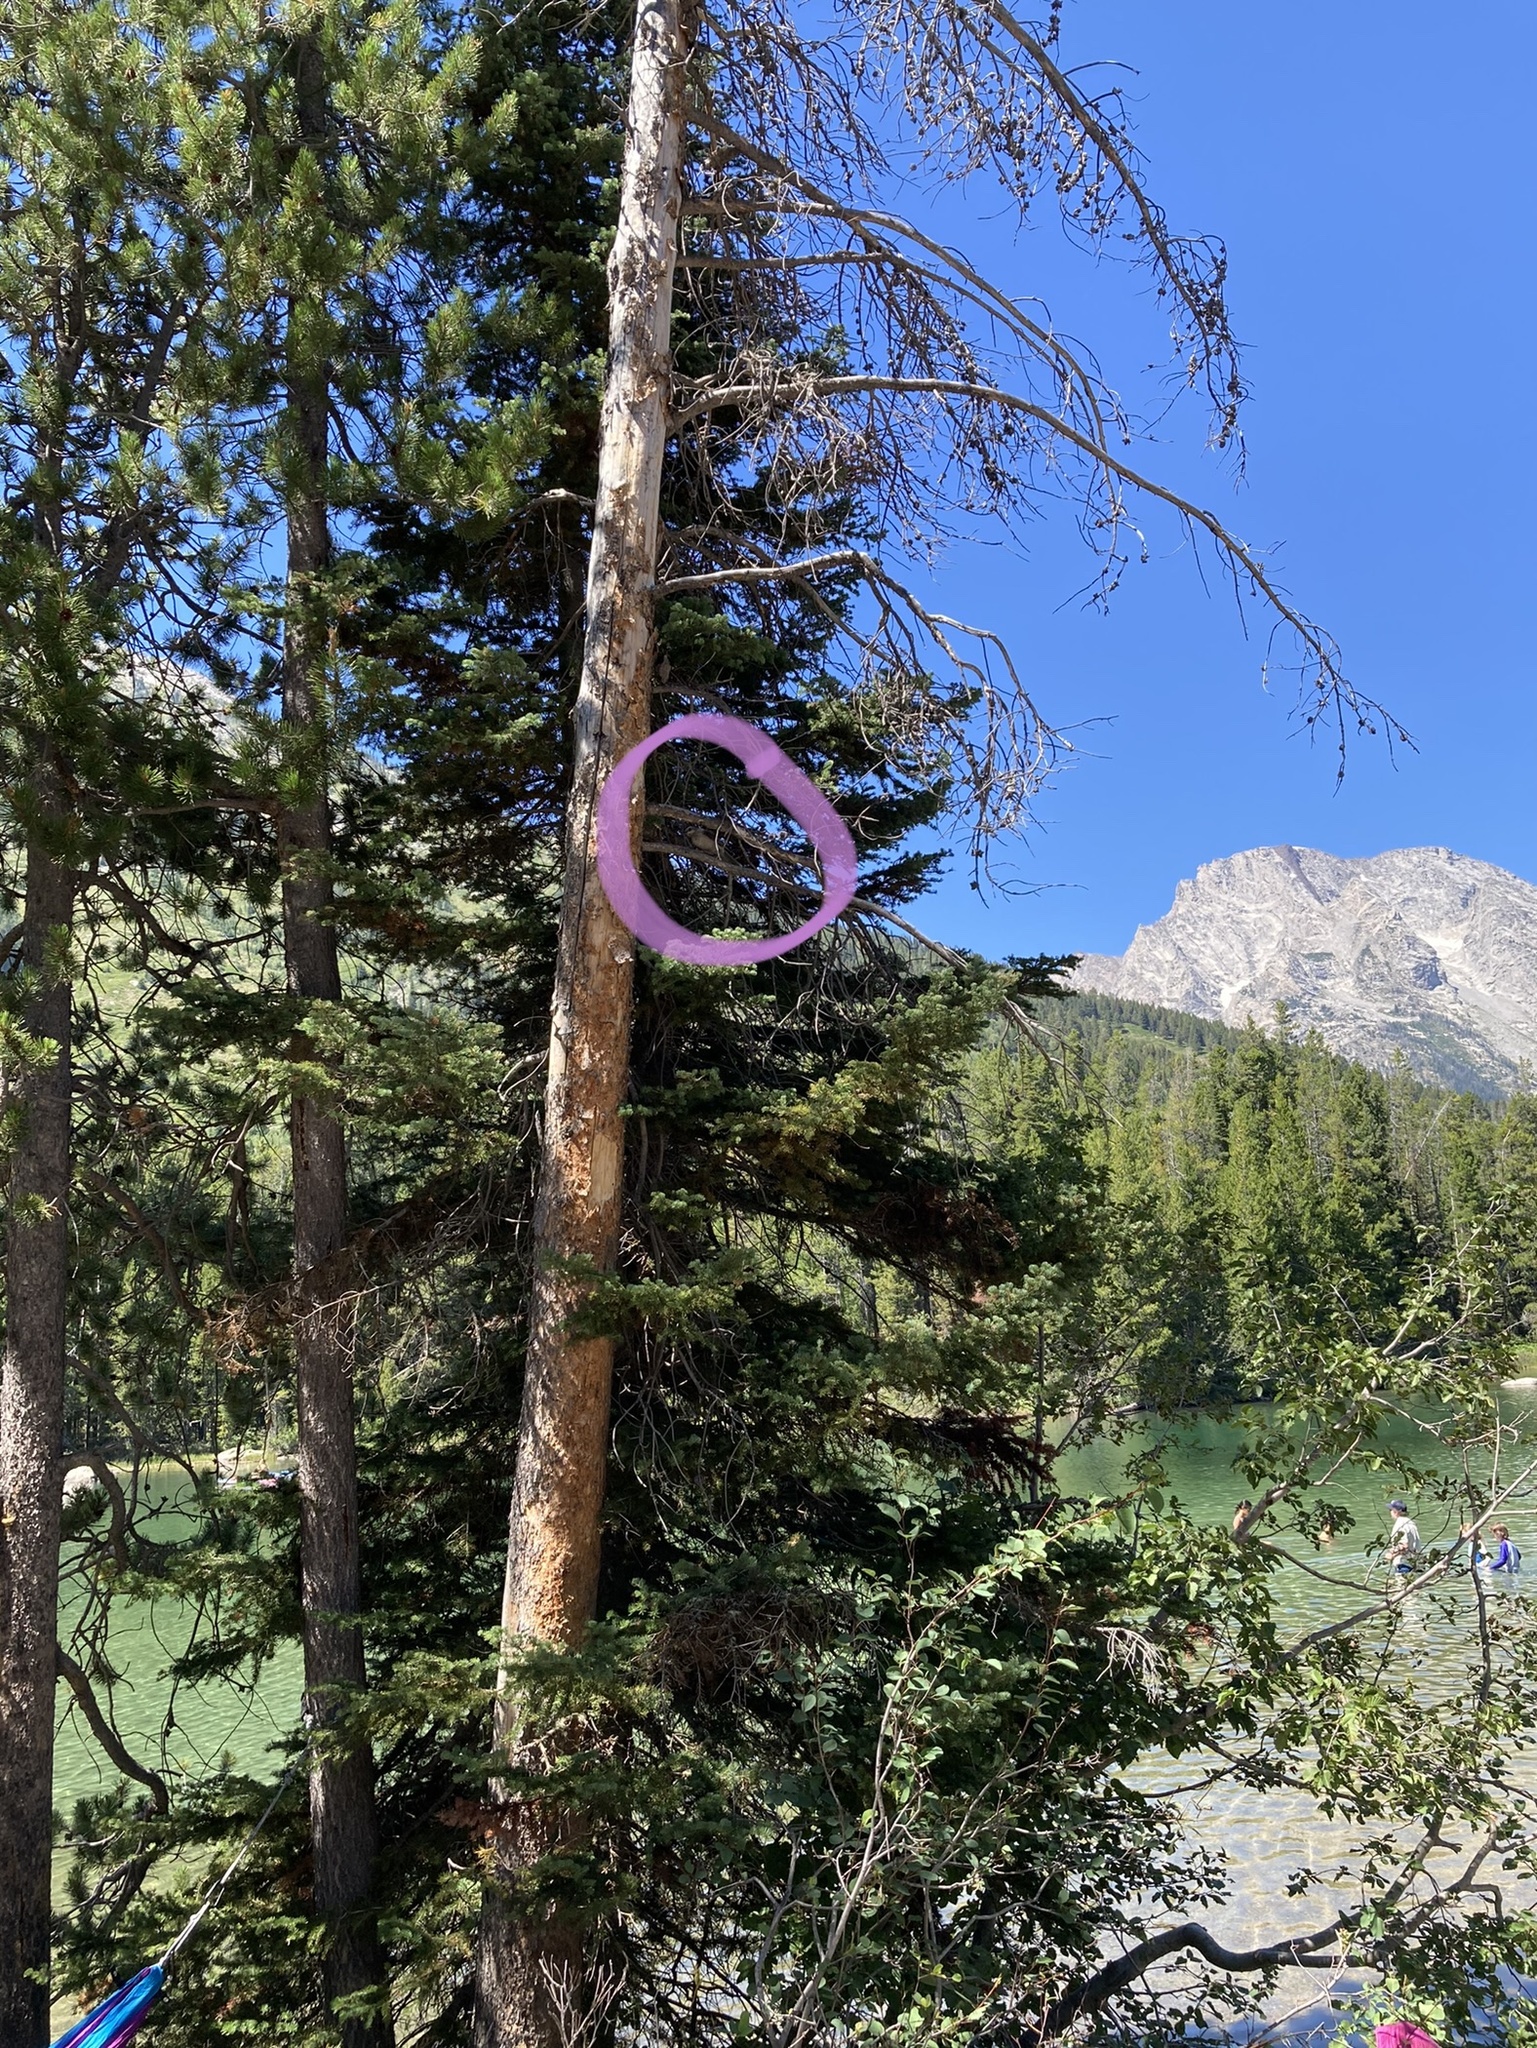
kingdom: Animalia
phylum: Chordata
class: Aves
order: Passeriformes
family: Corvidae
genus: Perisoreus
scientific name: Perisoreus canadensis
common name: Gray jay
